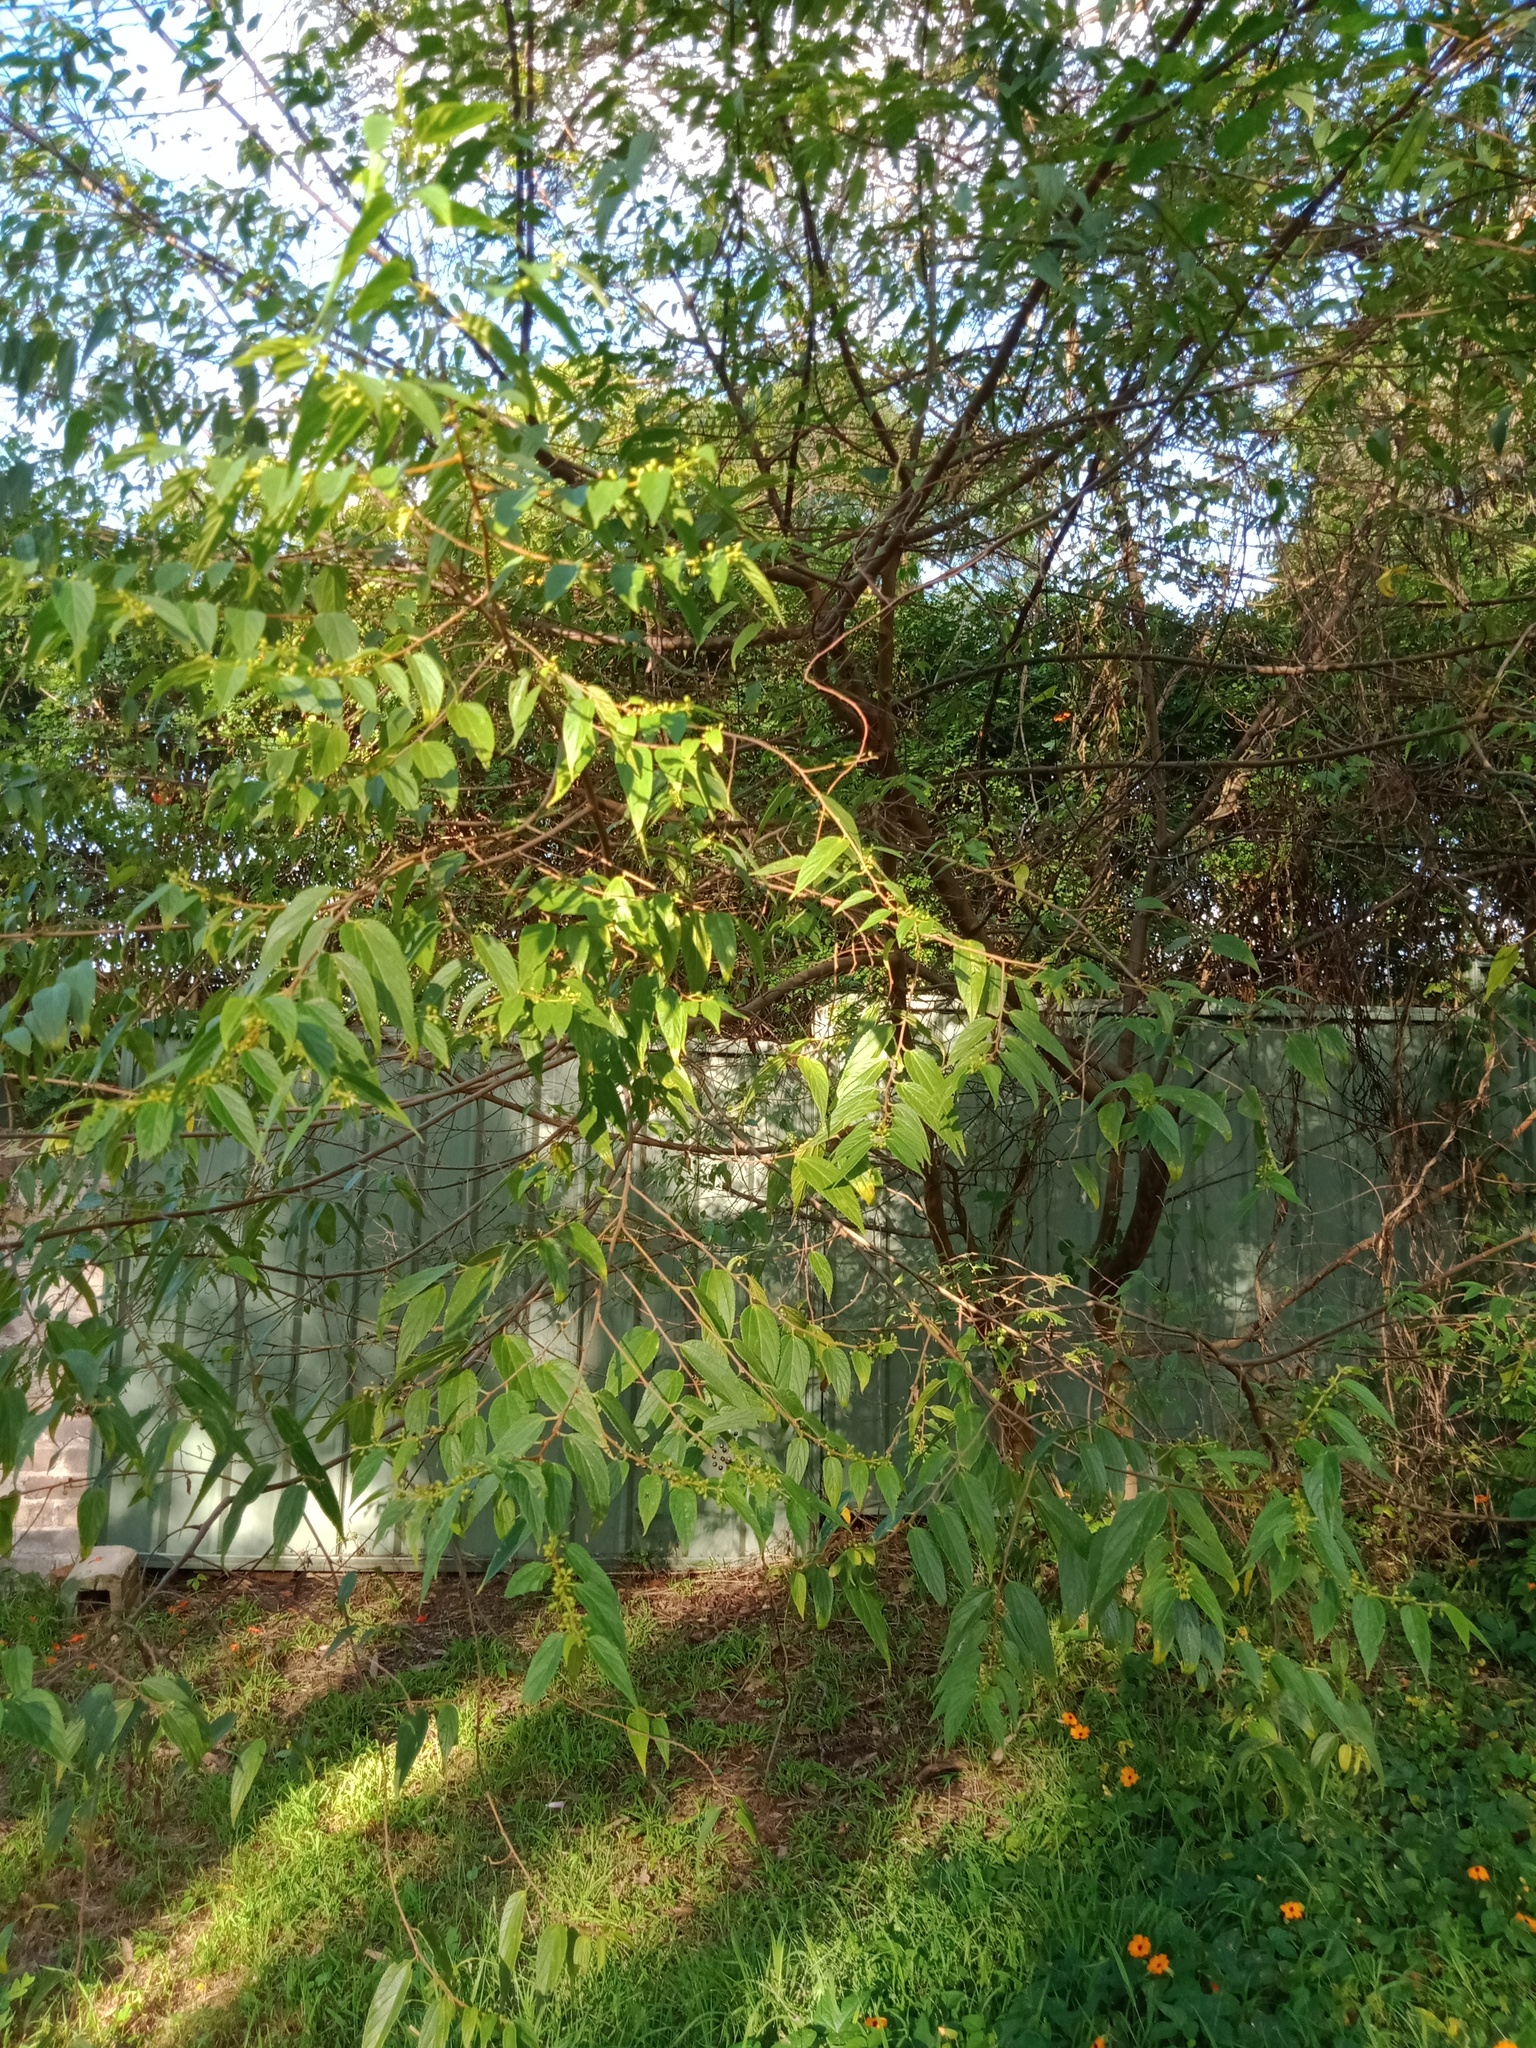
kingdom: Plantae
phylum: Tracheophyta
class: Magnoliopsida
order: Rosales
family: Cannabaceae
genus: Trema
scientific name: Trema tomentosum
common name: Peach-leaf-poisonbush
